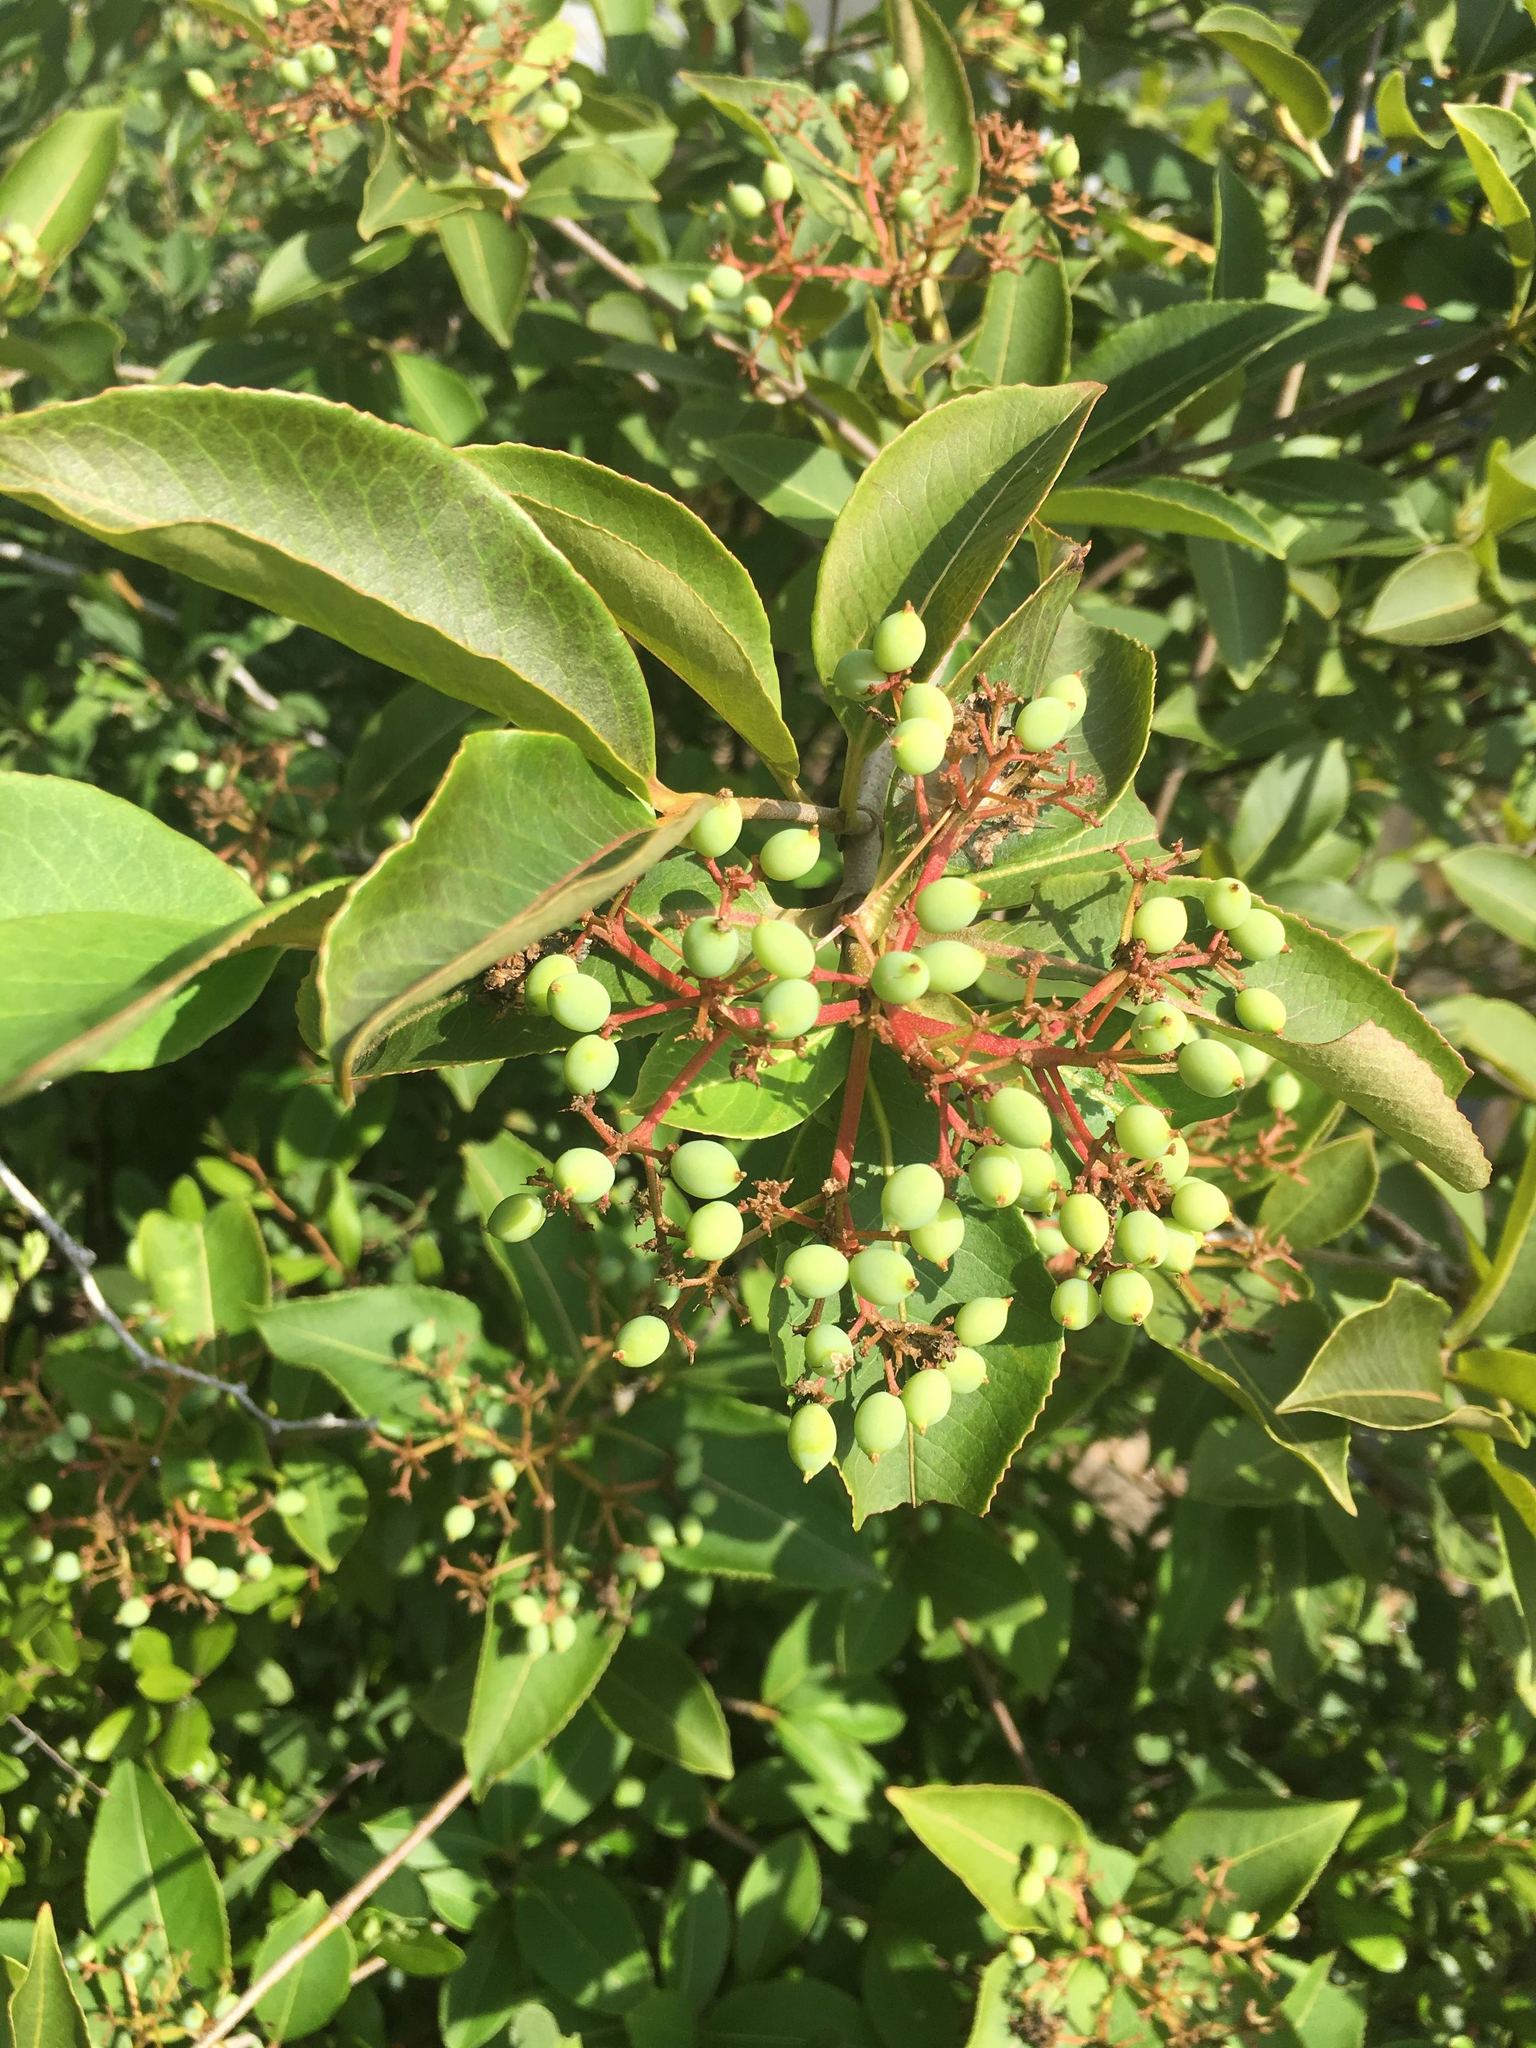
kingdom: Plantae
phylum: Tracheophyta
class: Magnoliopsida
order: Dipsacales
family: Viburnaceae
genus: Viburnum
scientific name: Viburnum cassinoides
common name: Swamp haw
